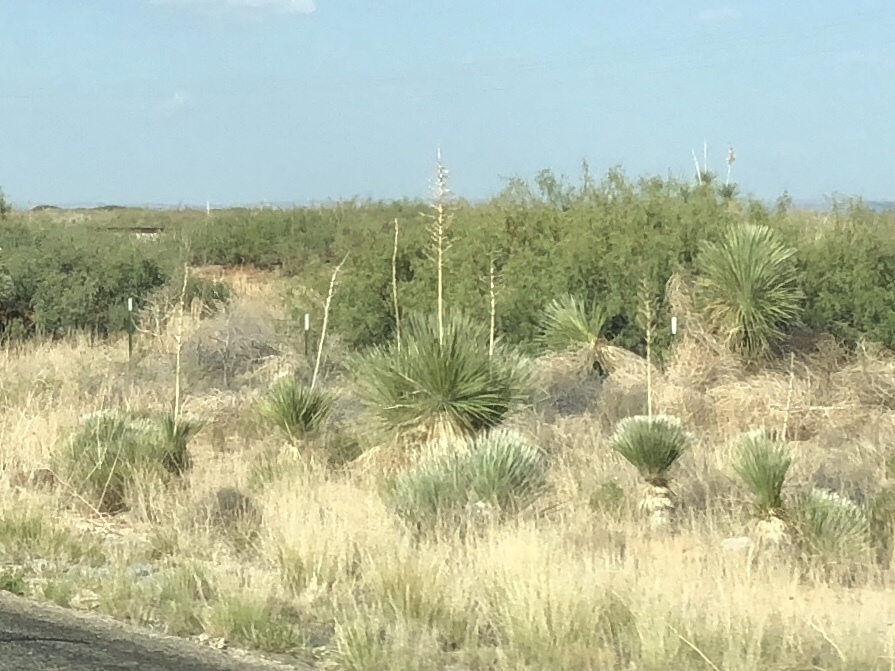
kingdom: Plantae
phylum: Tracheophyta
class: Liliopsida
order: Asparagales
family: Asparagaceae
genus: Yucca
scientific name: Yucca elata
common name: Palmella
